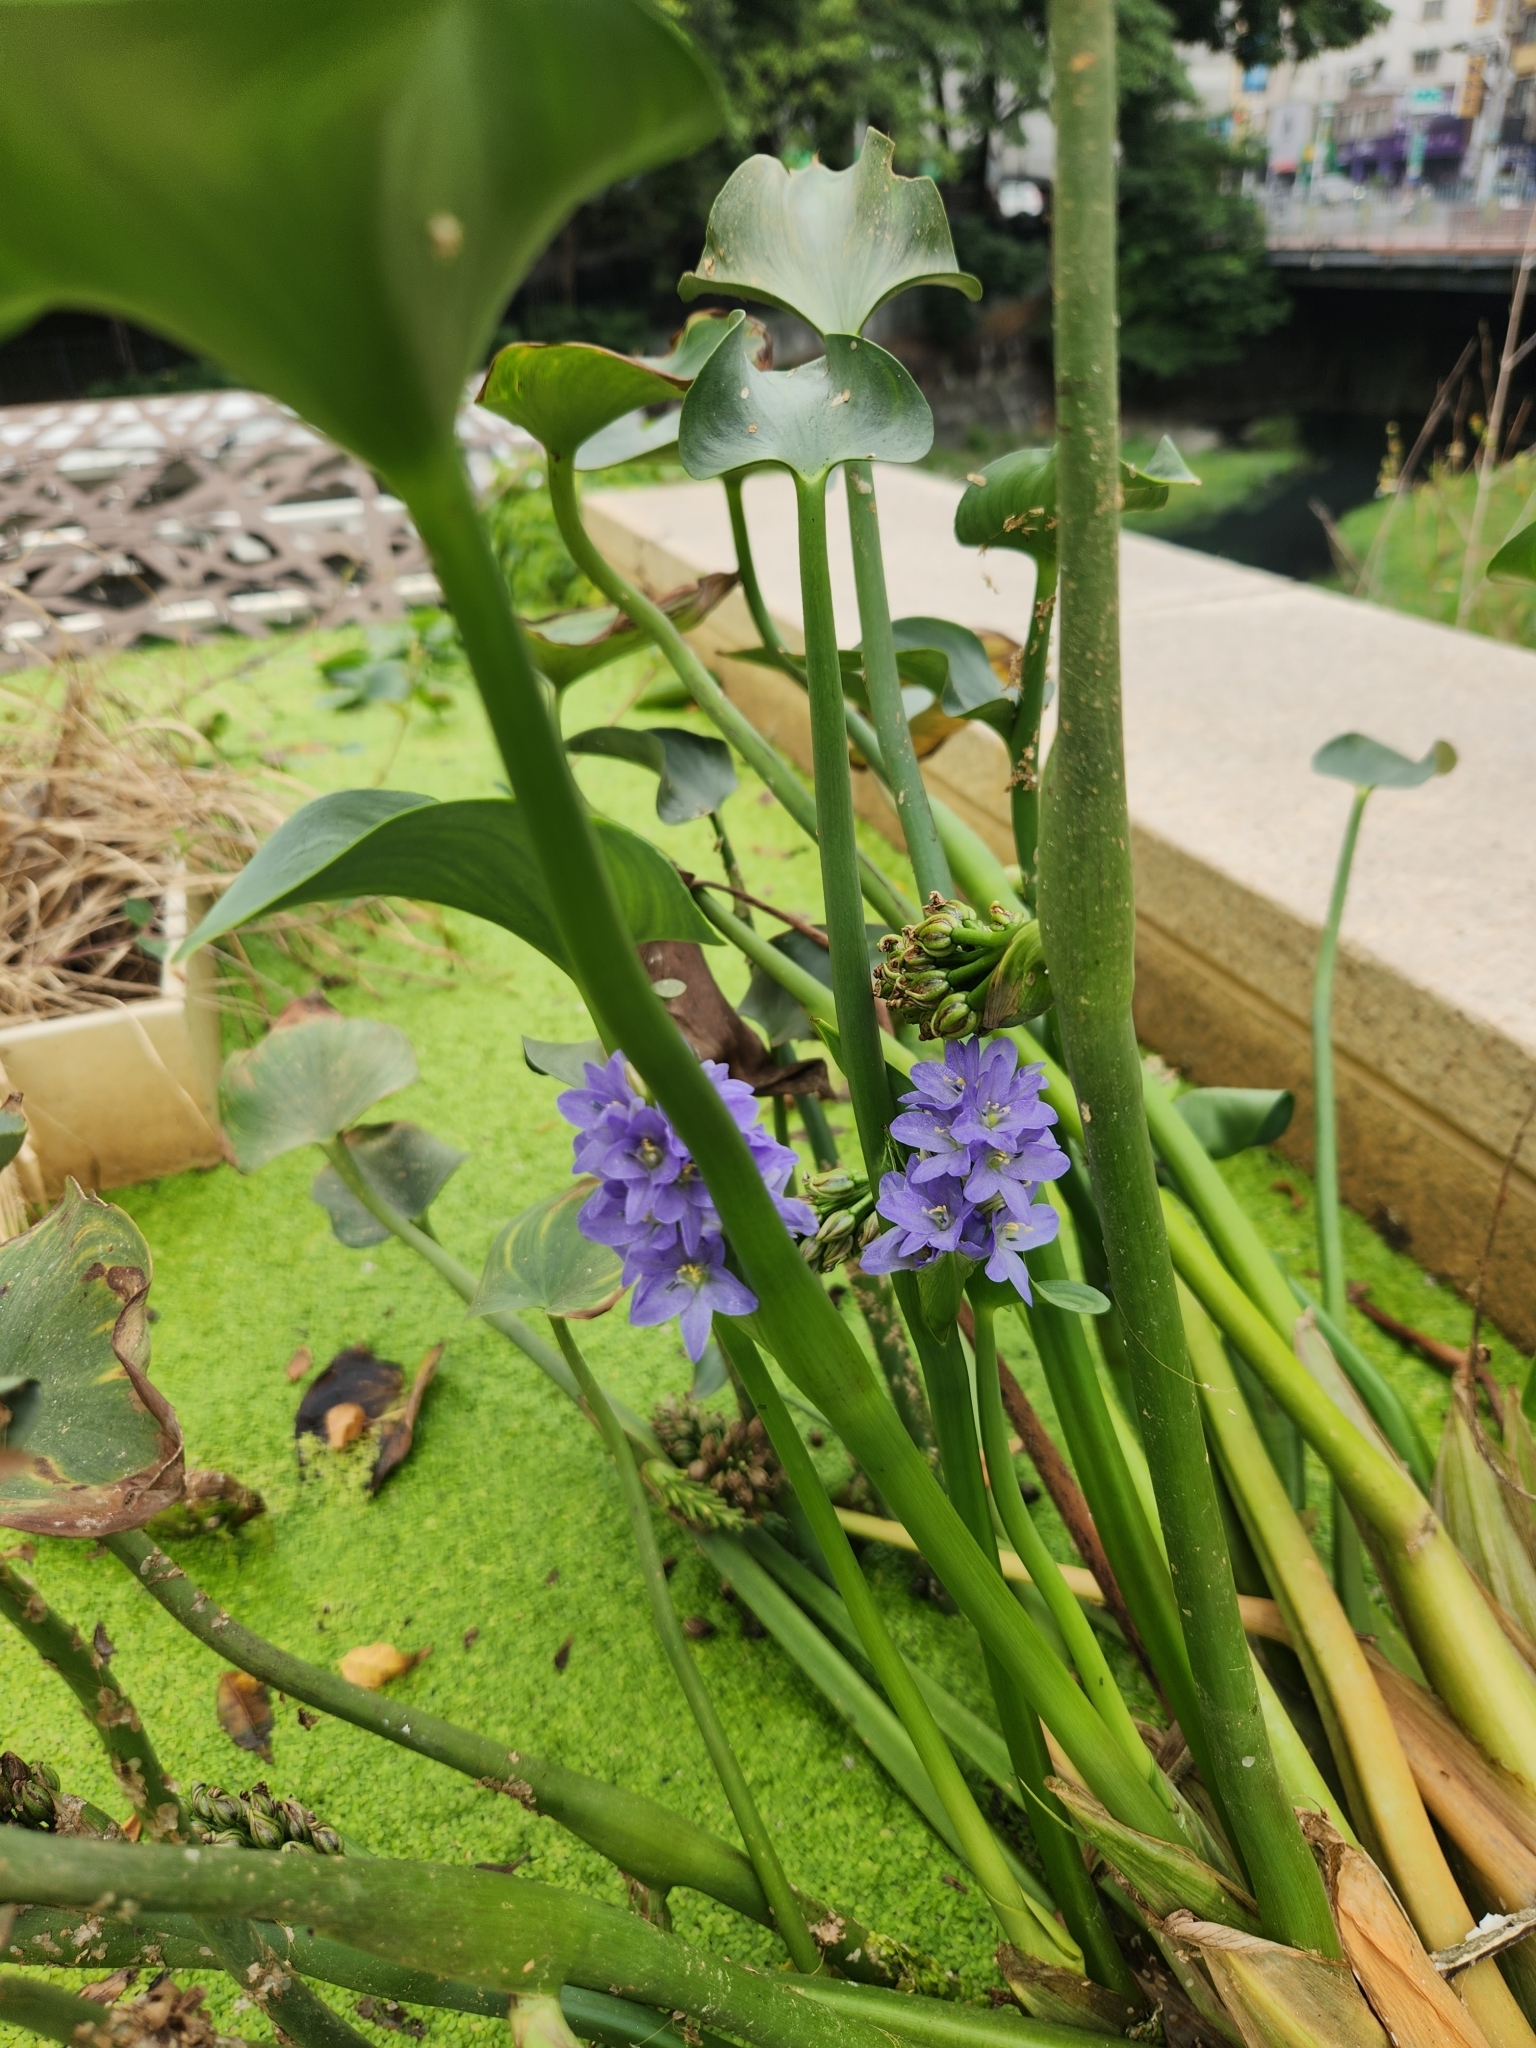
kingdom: Plantae
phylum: Tracheophyta
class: Liliopsida
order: Commelinales
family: Pontederiaceae
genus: Pontederia
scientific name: Pontederia vaginalis
